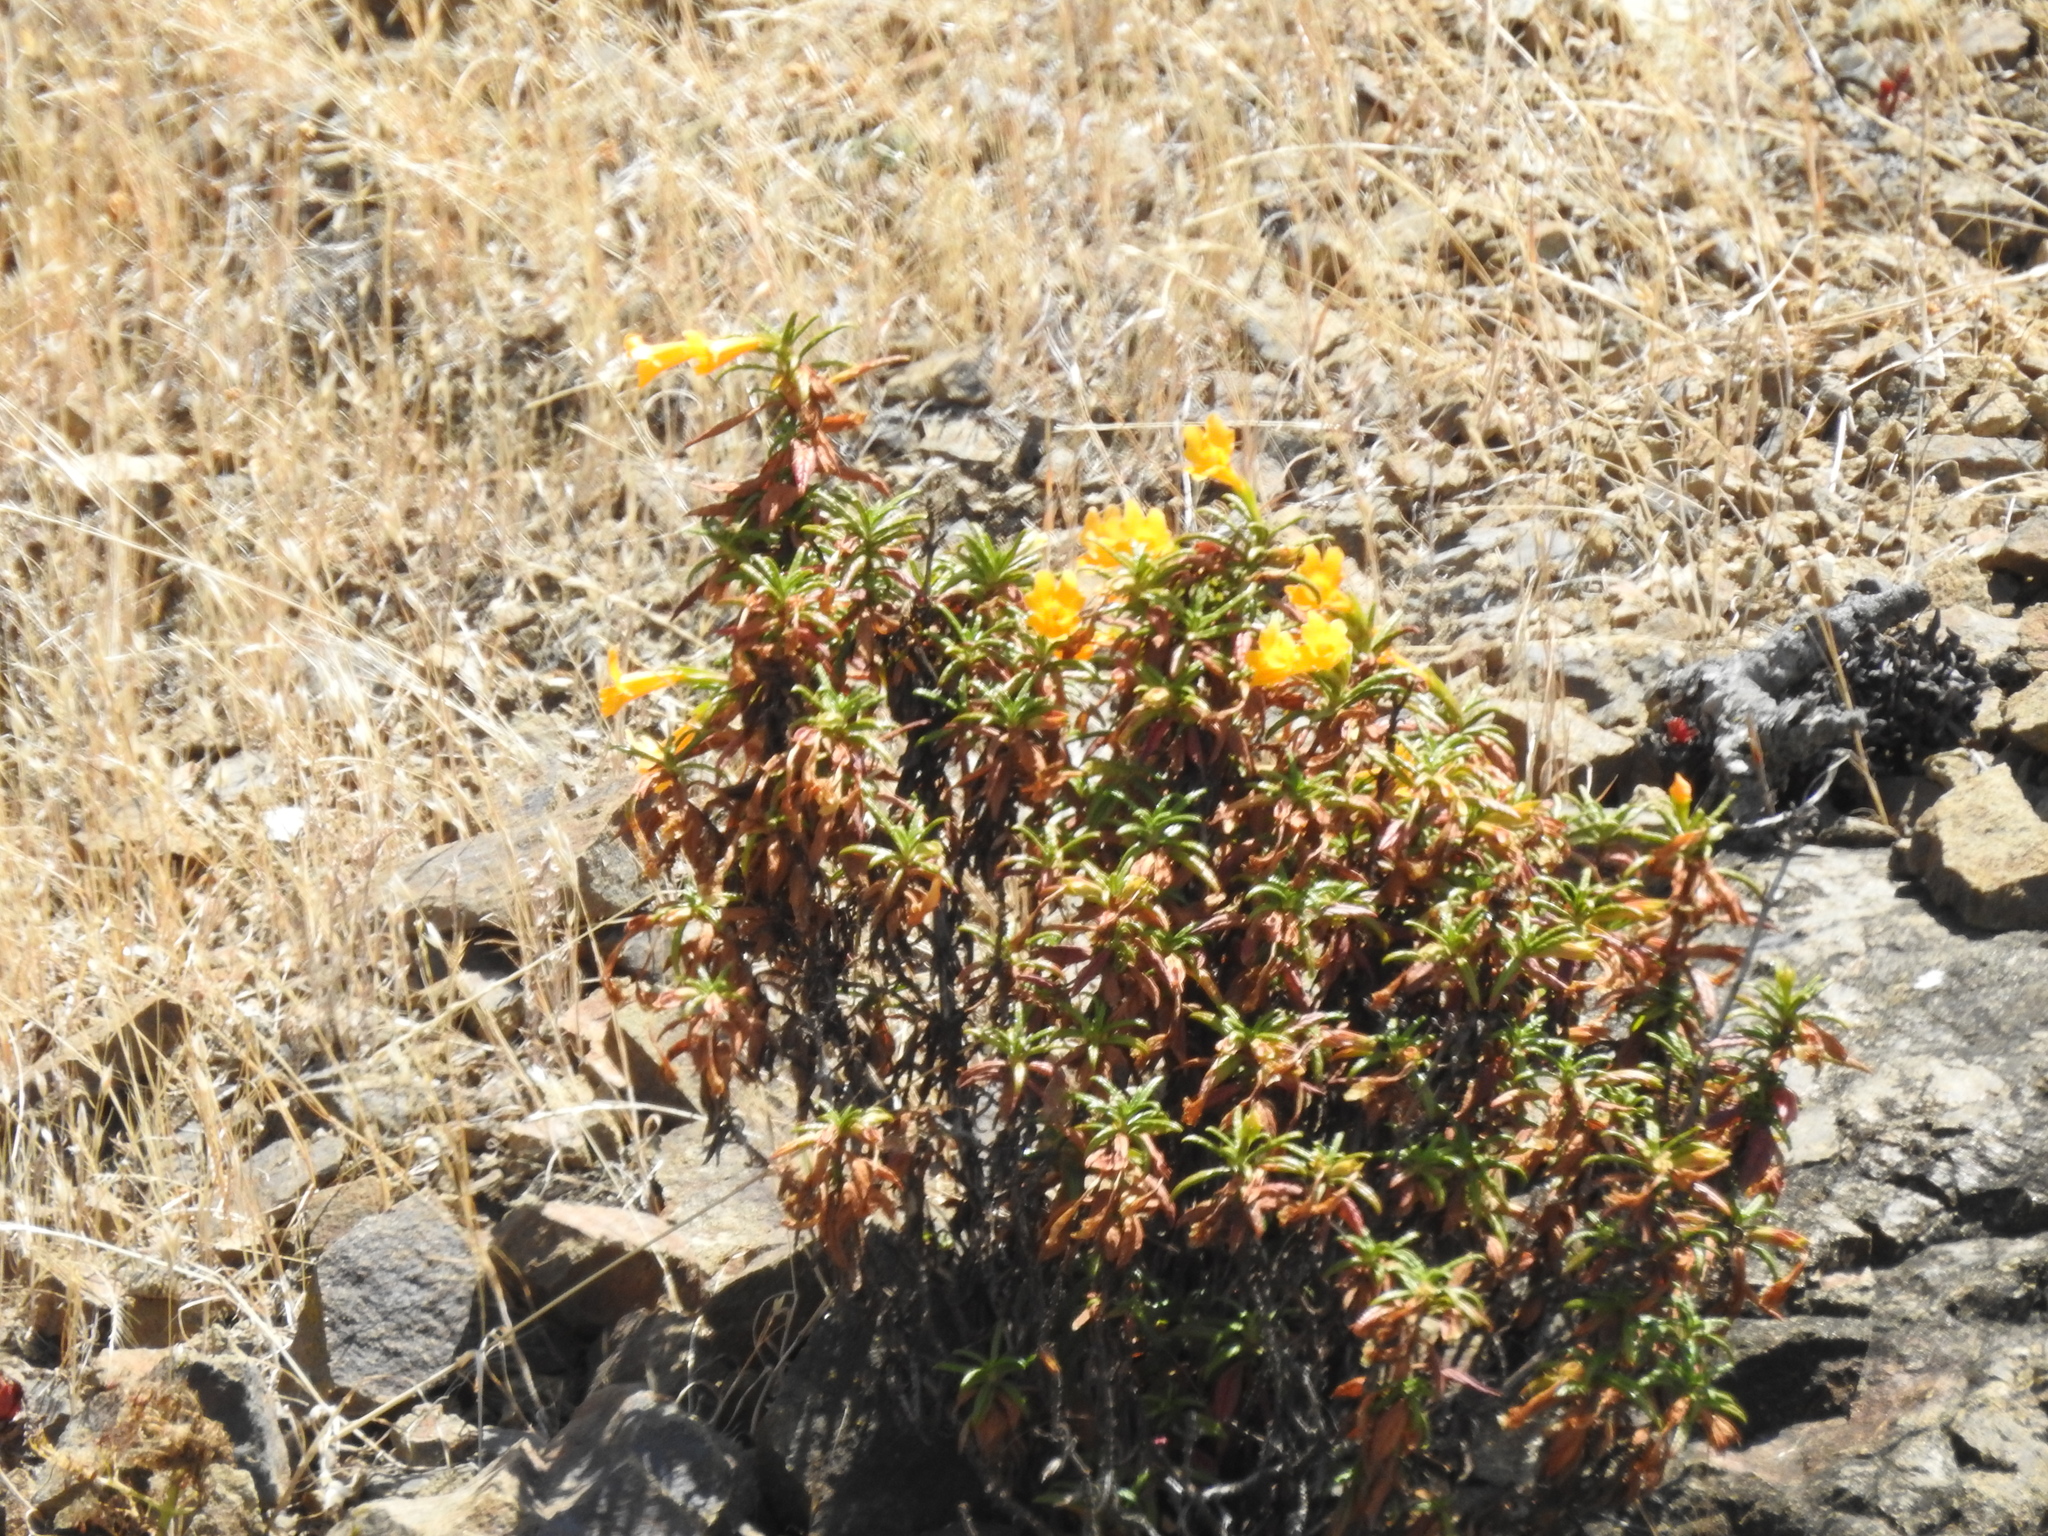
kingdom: Plantae
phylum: Tracheophyta
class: Magnoliopsida
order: Lamiales
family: Phrymaceae
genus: Diplacus
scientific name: Diplacus aurantiacus
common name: Bush monkey-flower
